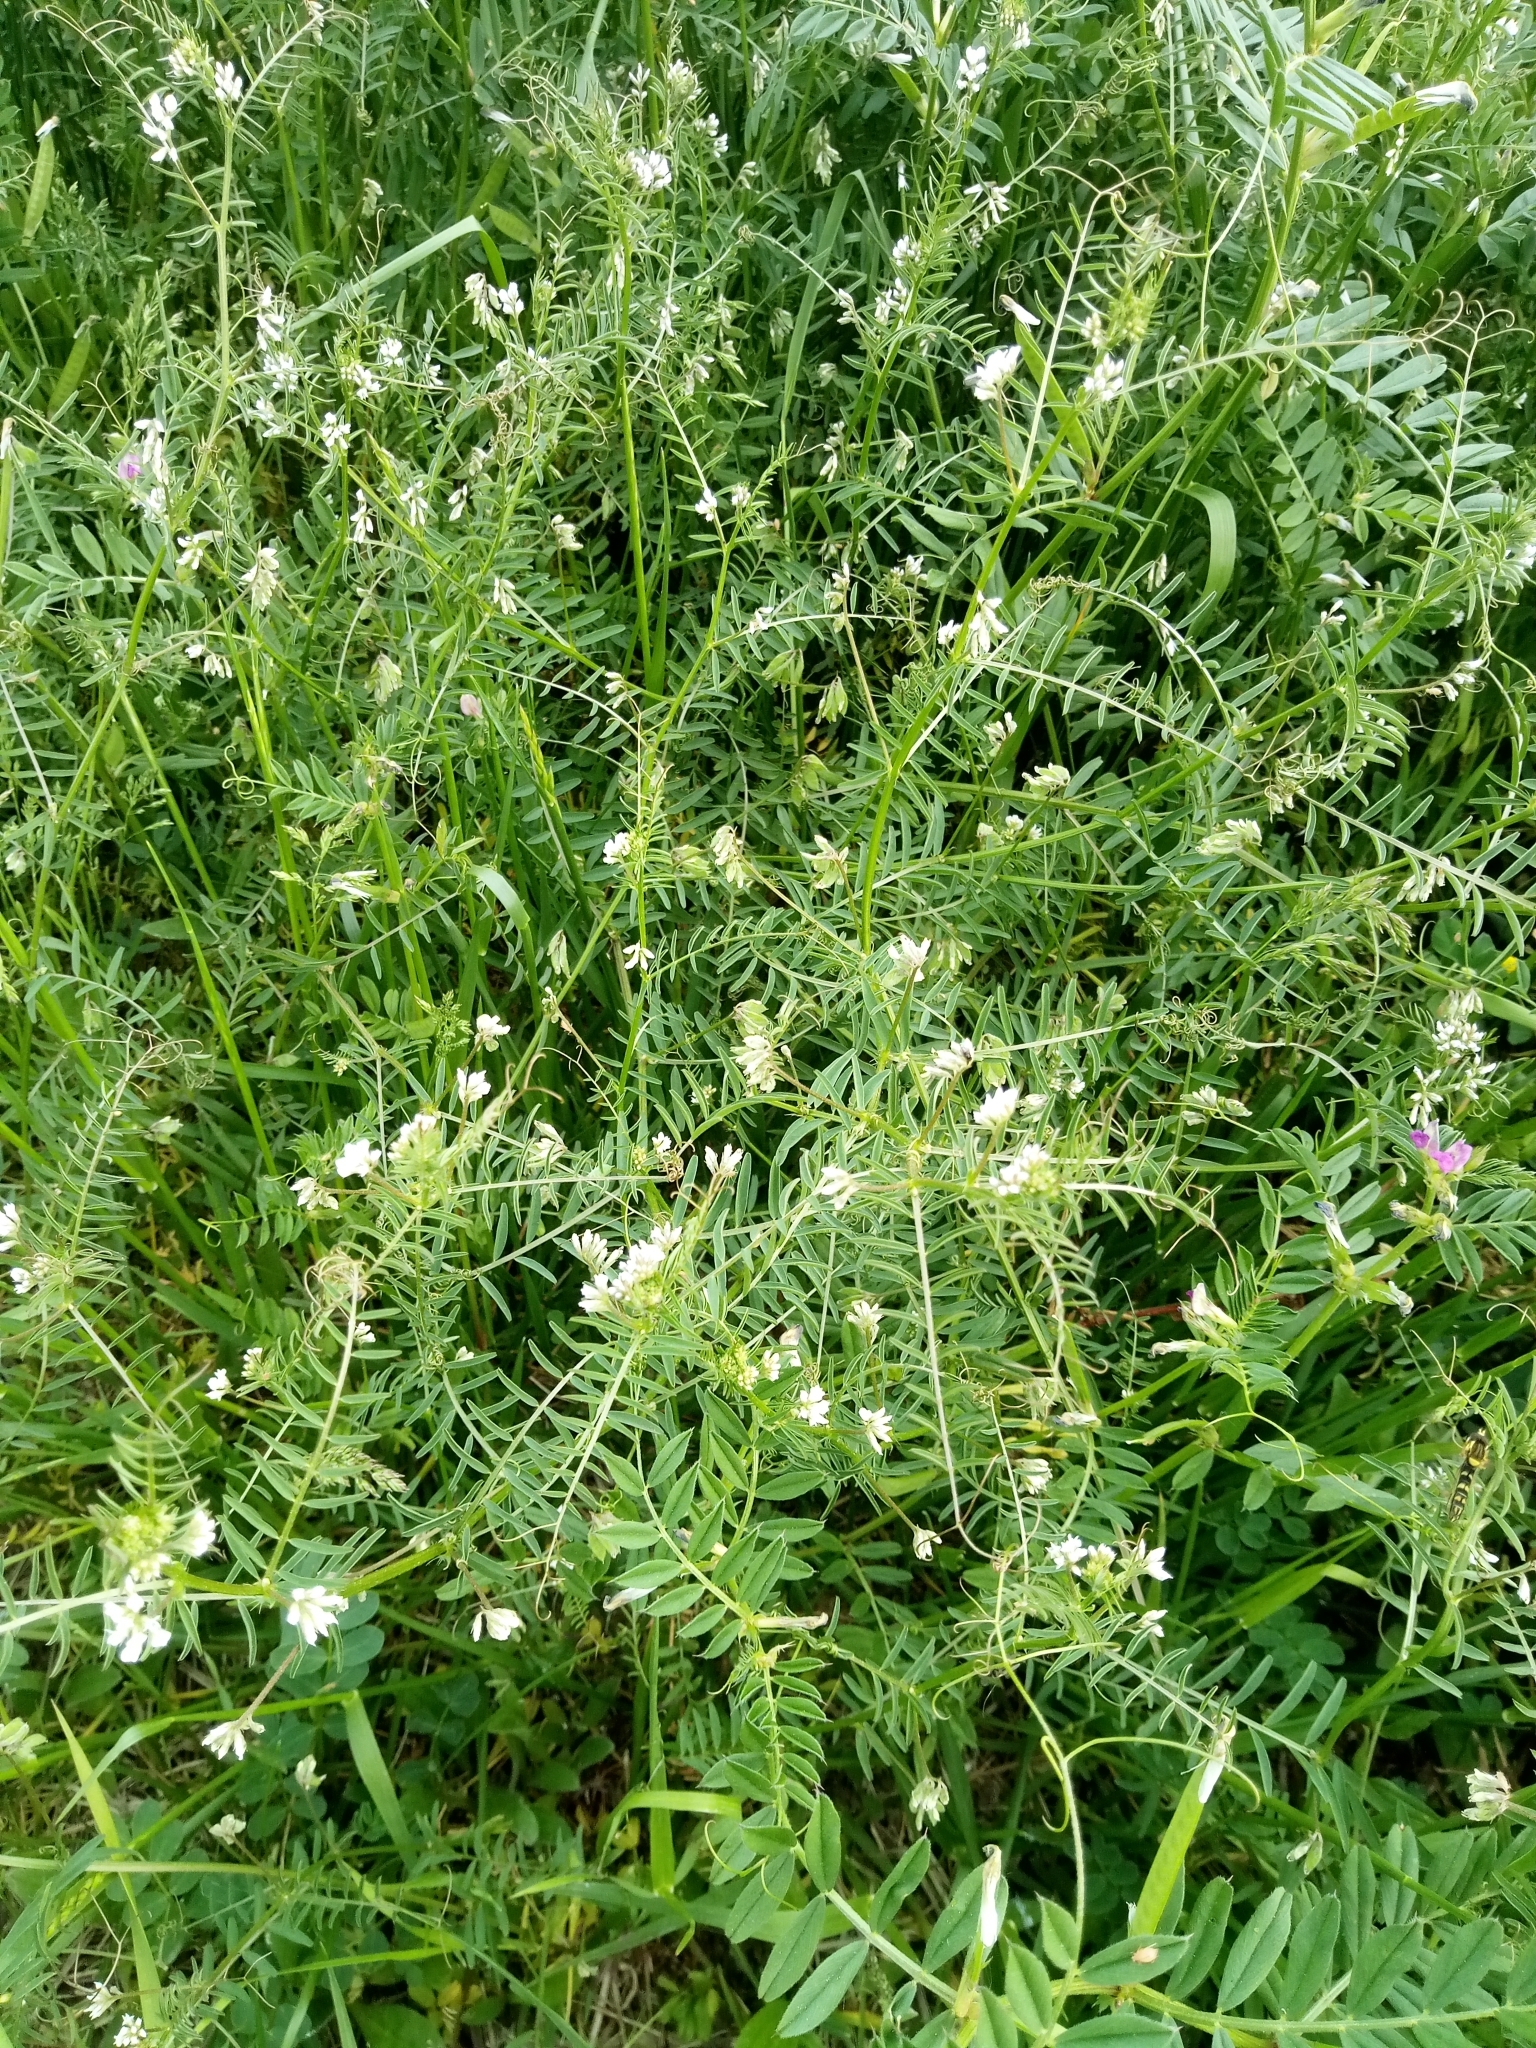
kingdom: Plantae
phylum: Tracheophyta
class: Magnoliopsida
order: Fabales
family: Fabaceae
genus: Vicia
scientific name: Vicia hirsuta
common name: Tiny vetch
